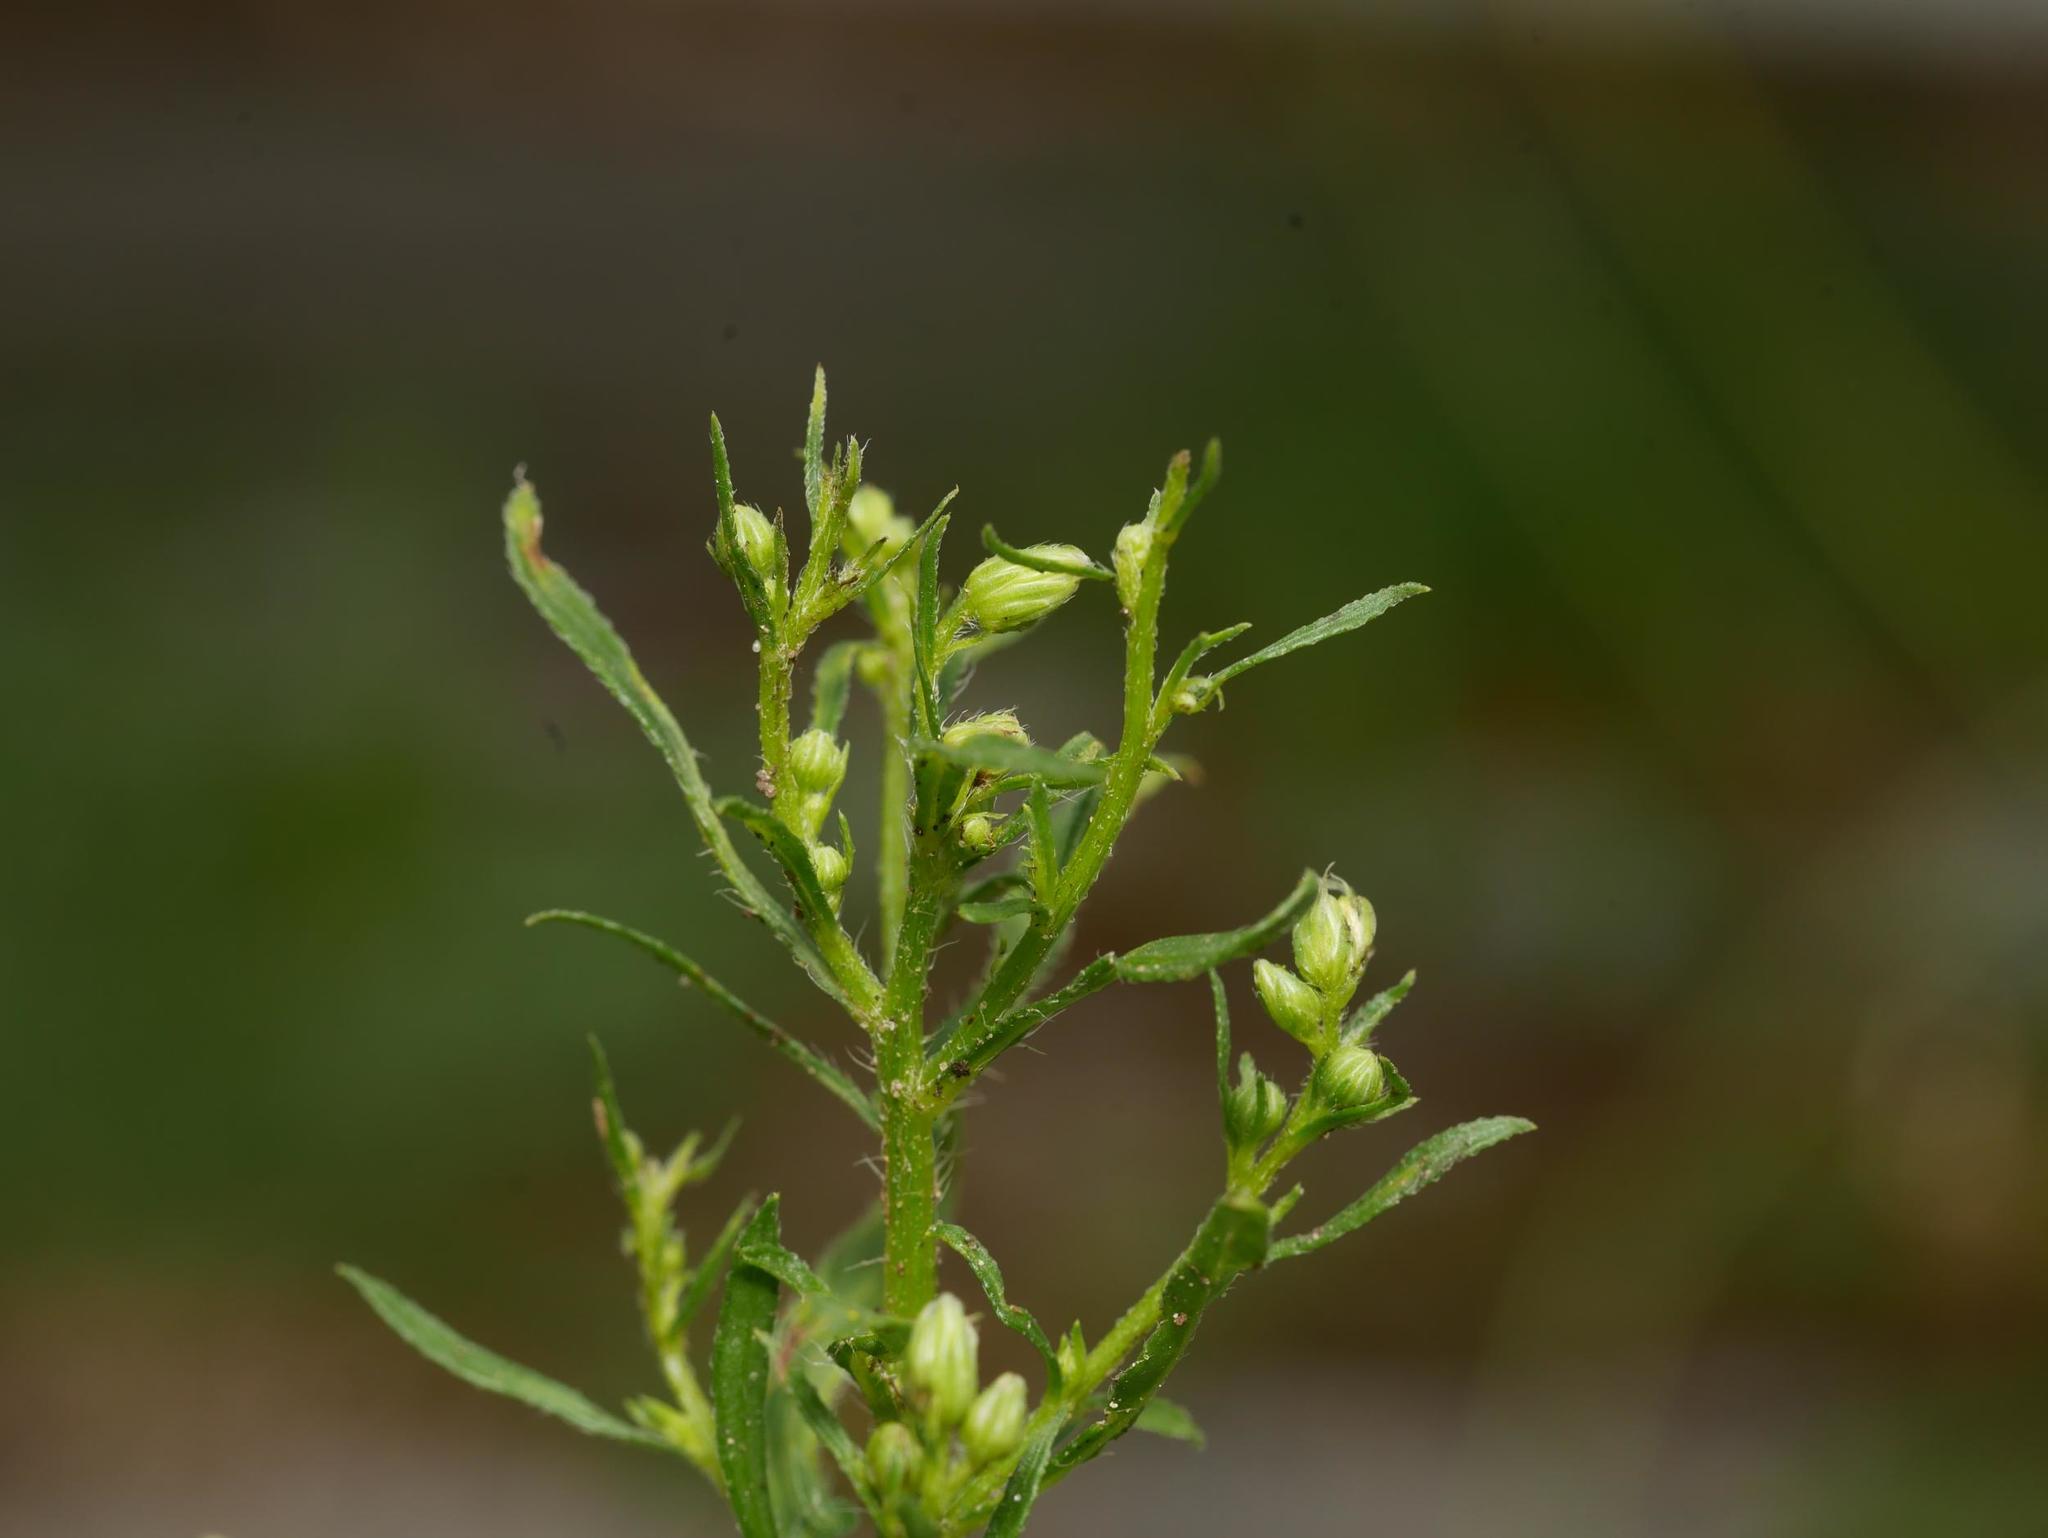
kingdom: Plantae
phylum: Tracheophyta
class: Magnoliopsida
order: Asterales
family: Asteraceae
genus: Erigeron
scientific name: Erigeron canadensis
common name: Canadian fleabane
